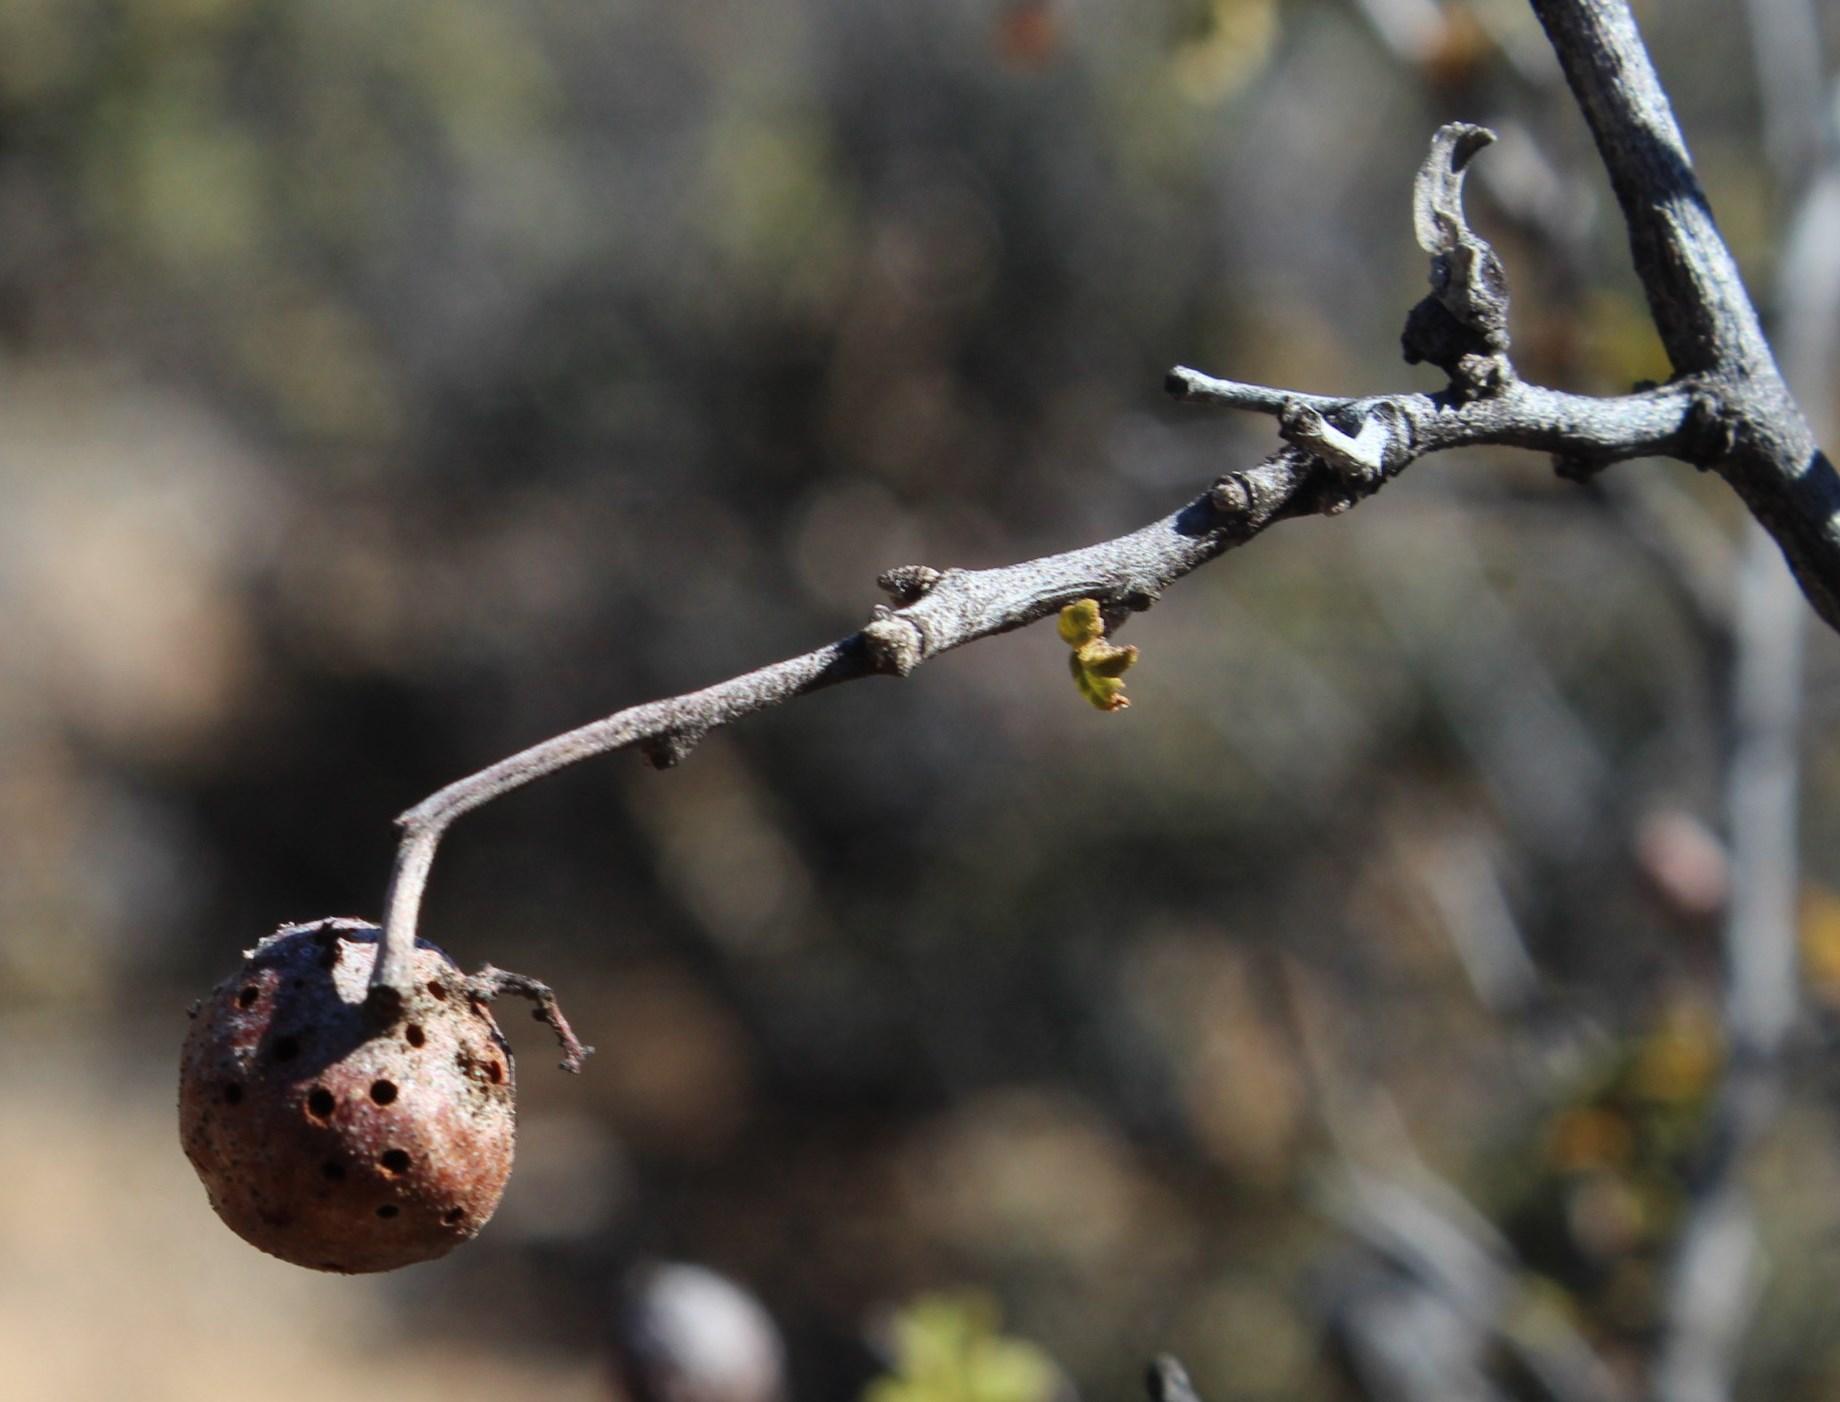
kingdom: Plantae
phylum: Tracheophyta
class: Magnoliopsida
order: Sapindales
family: Anacardiaceae
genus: Searsia
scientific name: Searsia populifolia
